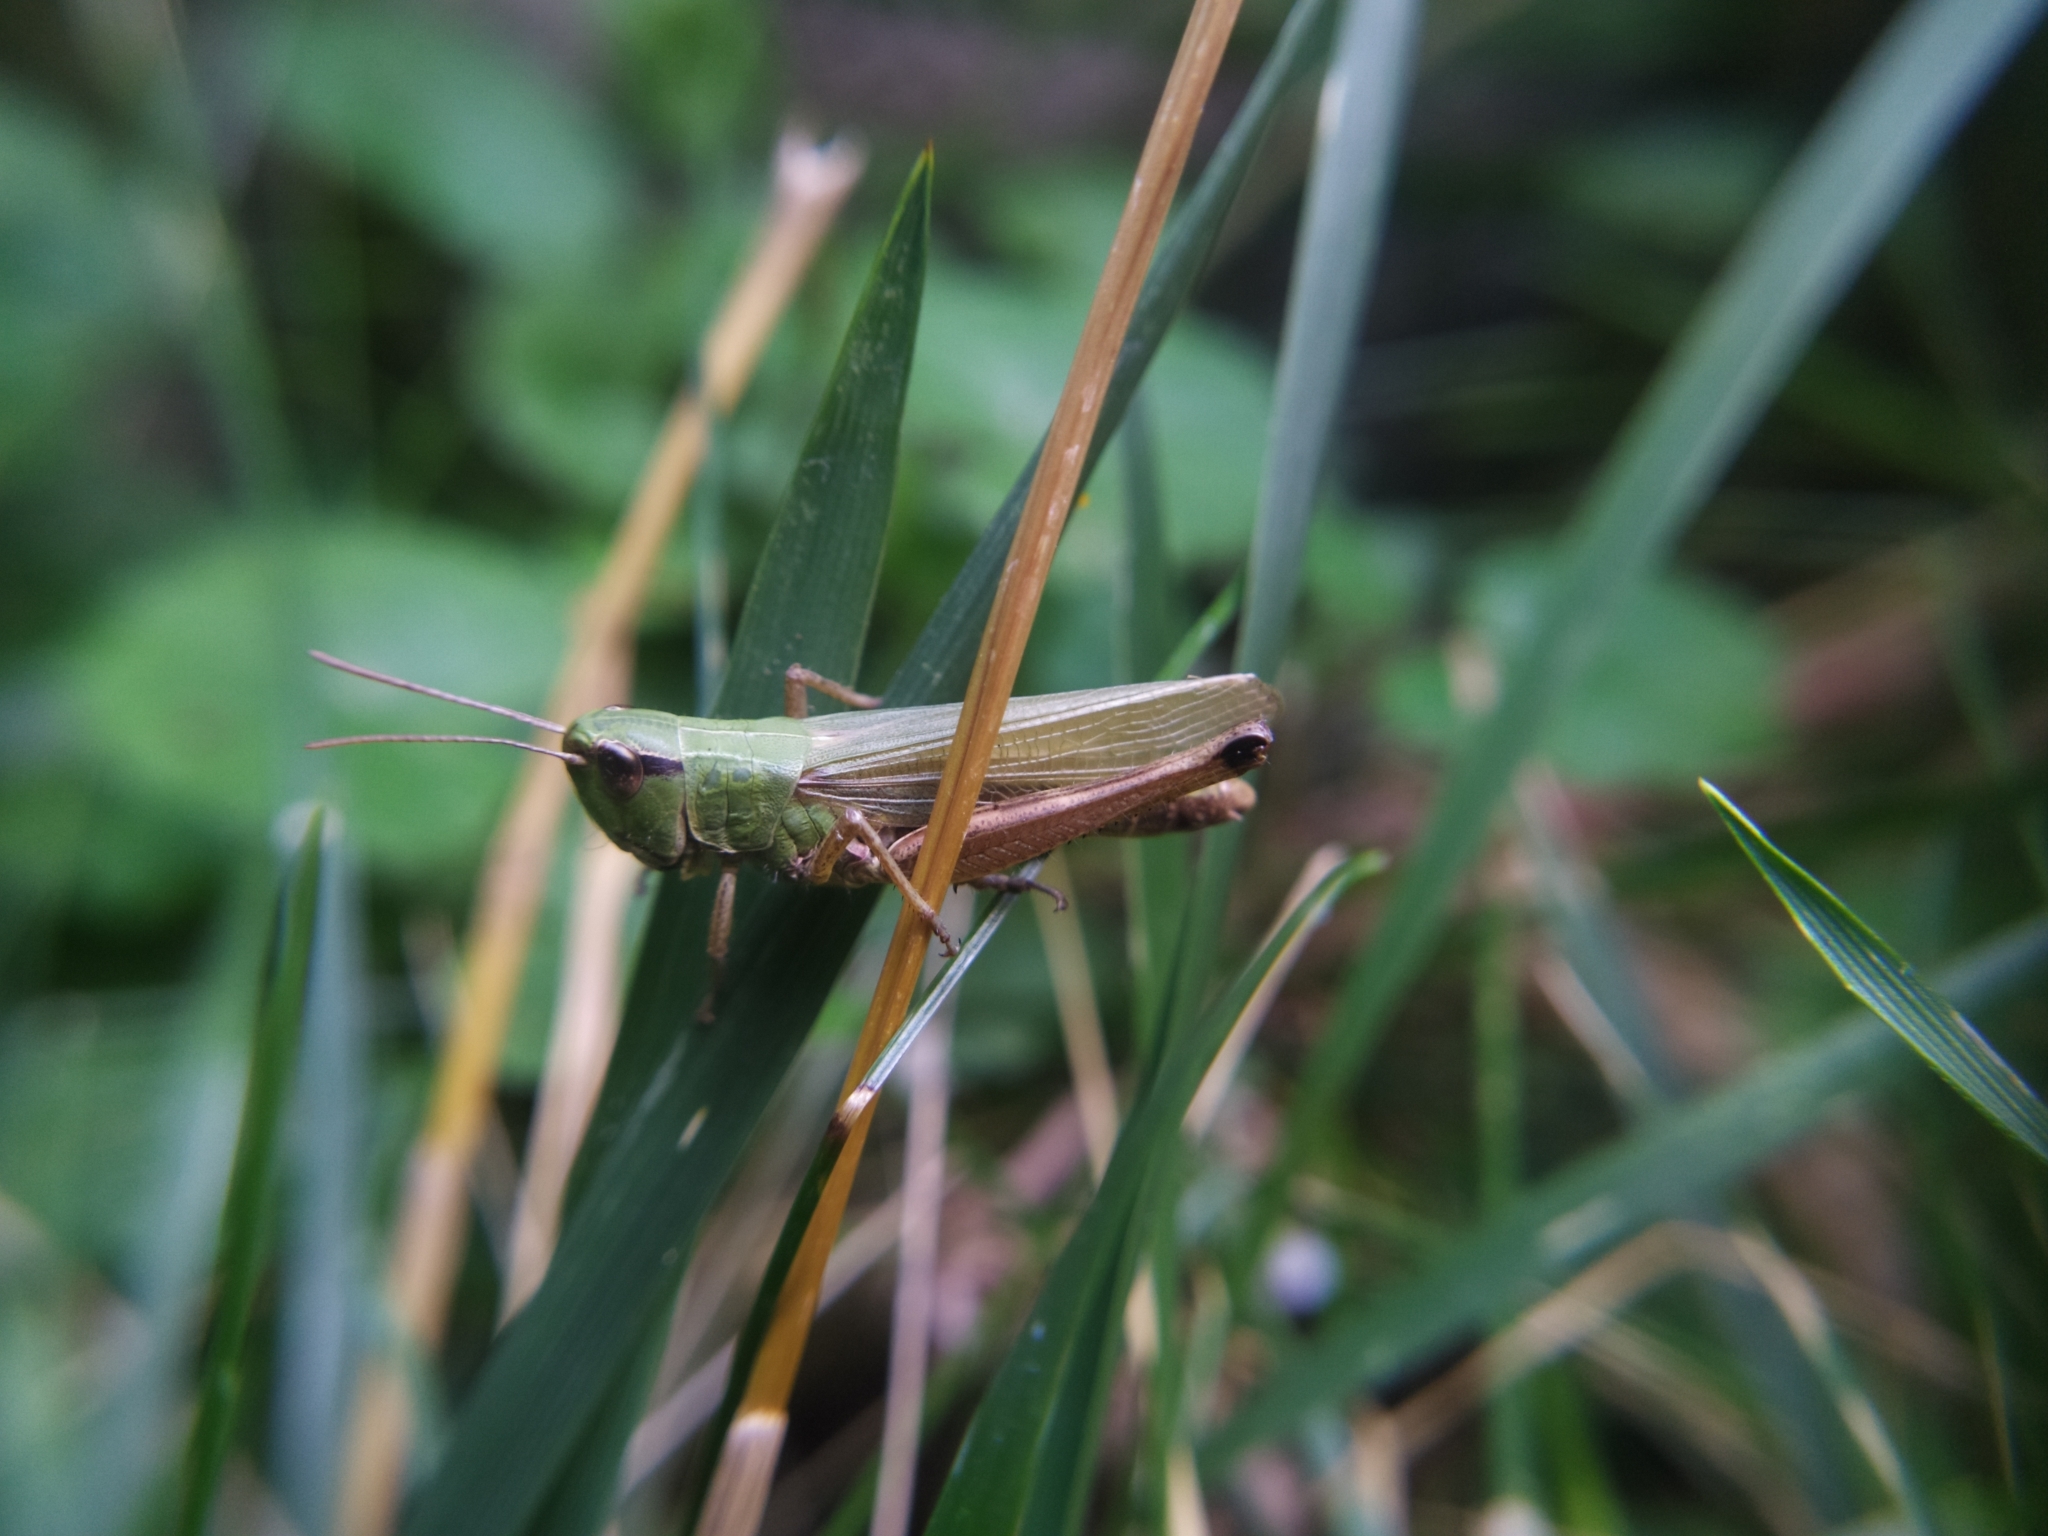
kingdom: Animalia
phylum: Arthropoda
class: Insecta
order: Orthoptera
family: Acrididae
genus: Pseudochorthippus
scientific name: Pseudochorthippus parallelus
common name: Meadow grasshopper
